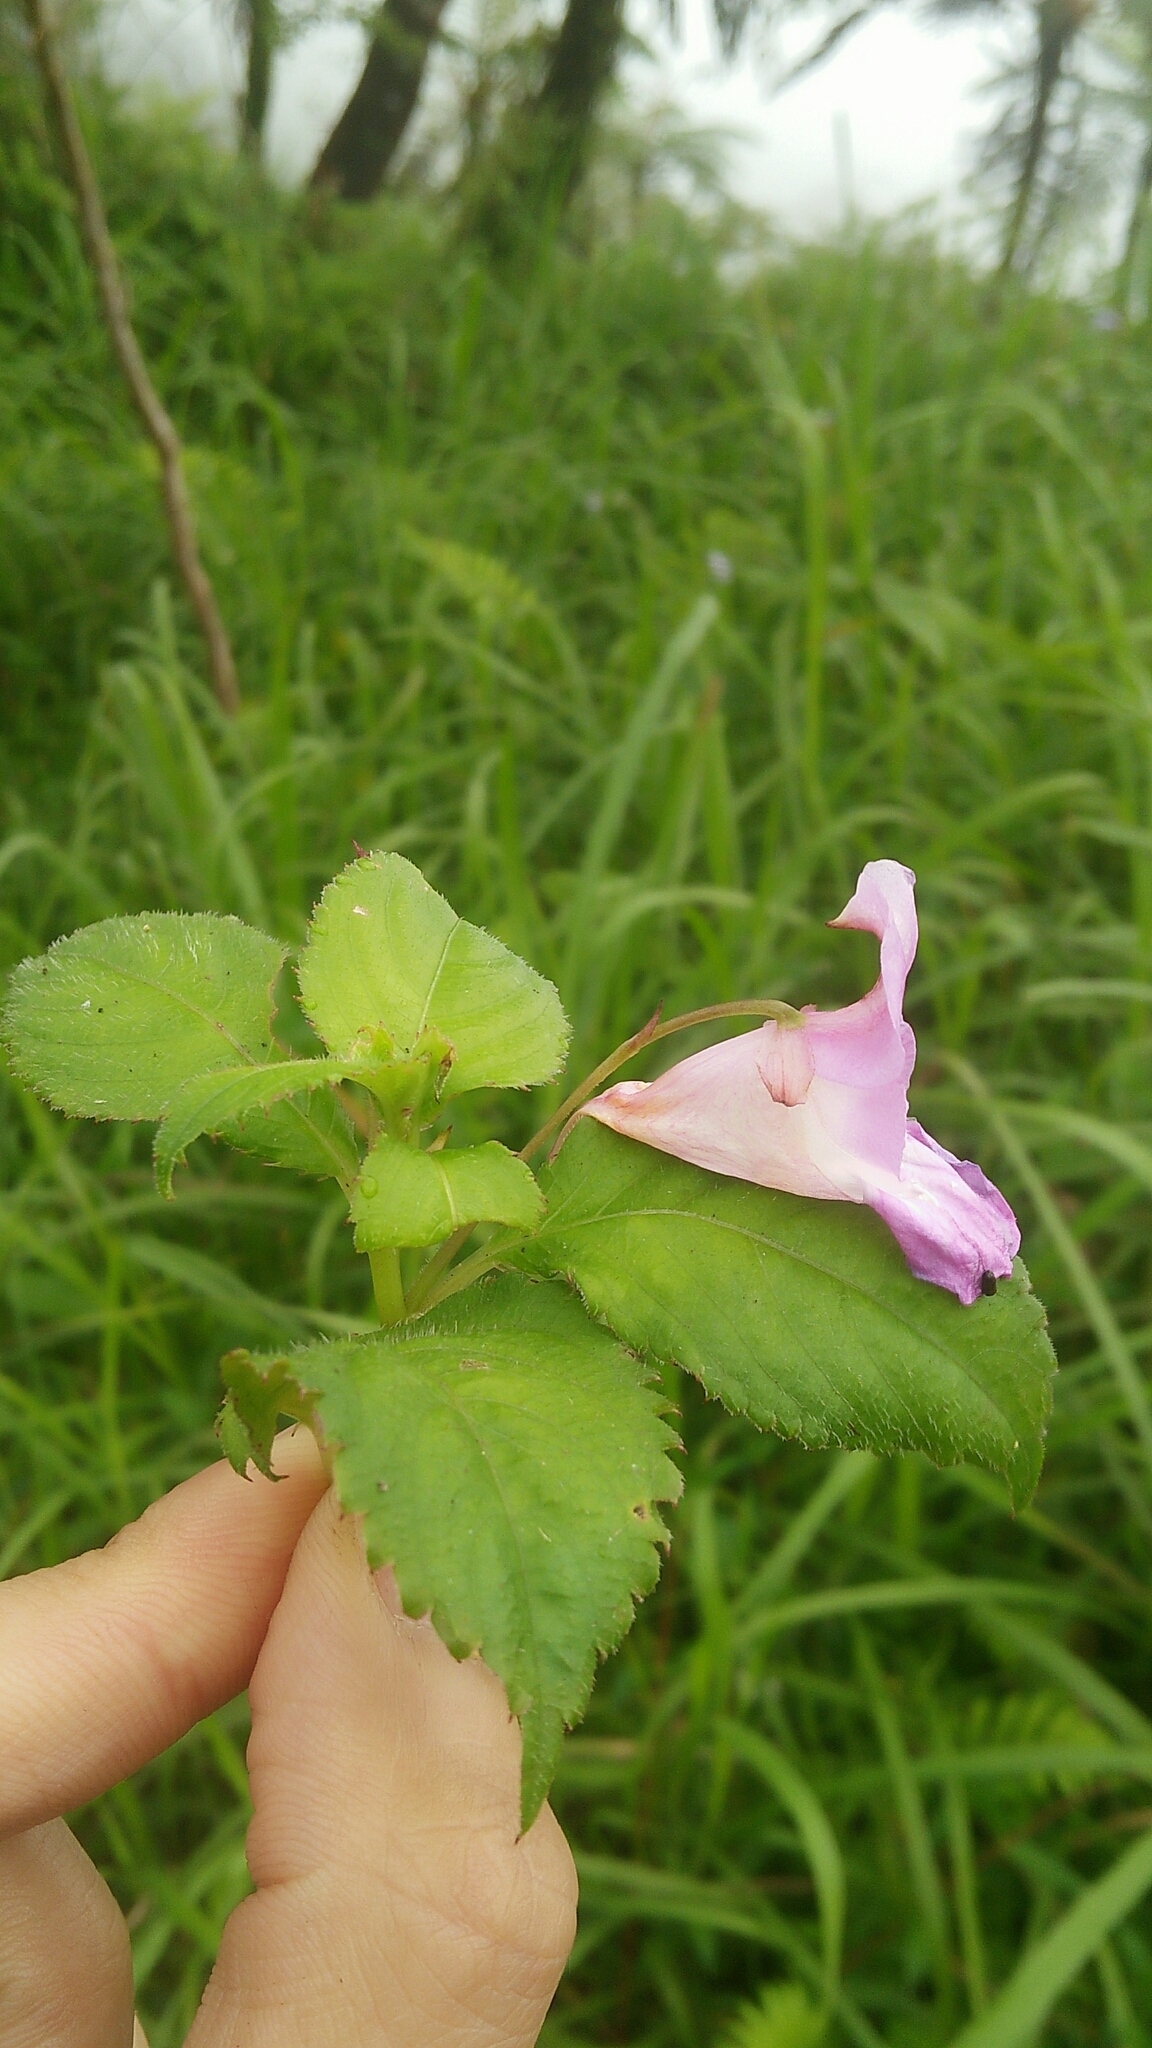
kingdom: Plantae
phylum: Tracheophyta
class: Magnoliopsida
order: Ericales
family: Balsaminaceae
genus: Impatiens
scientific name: Impatiens uniflora
